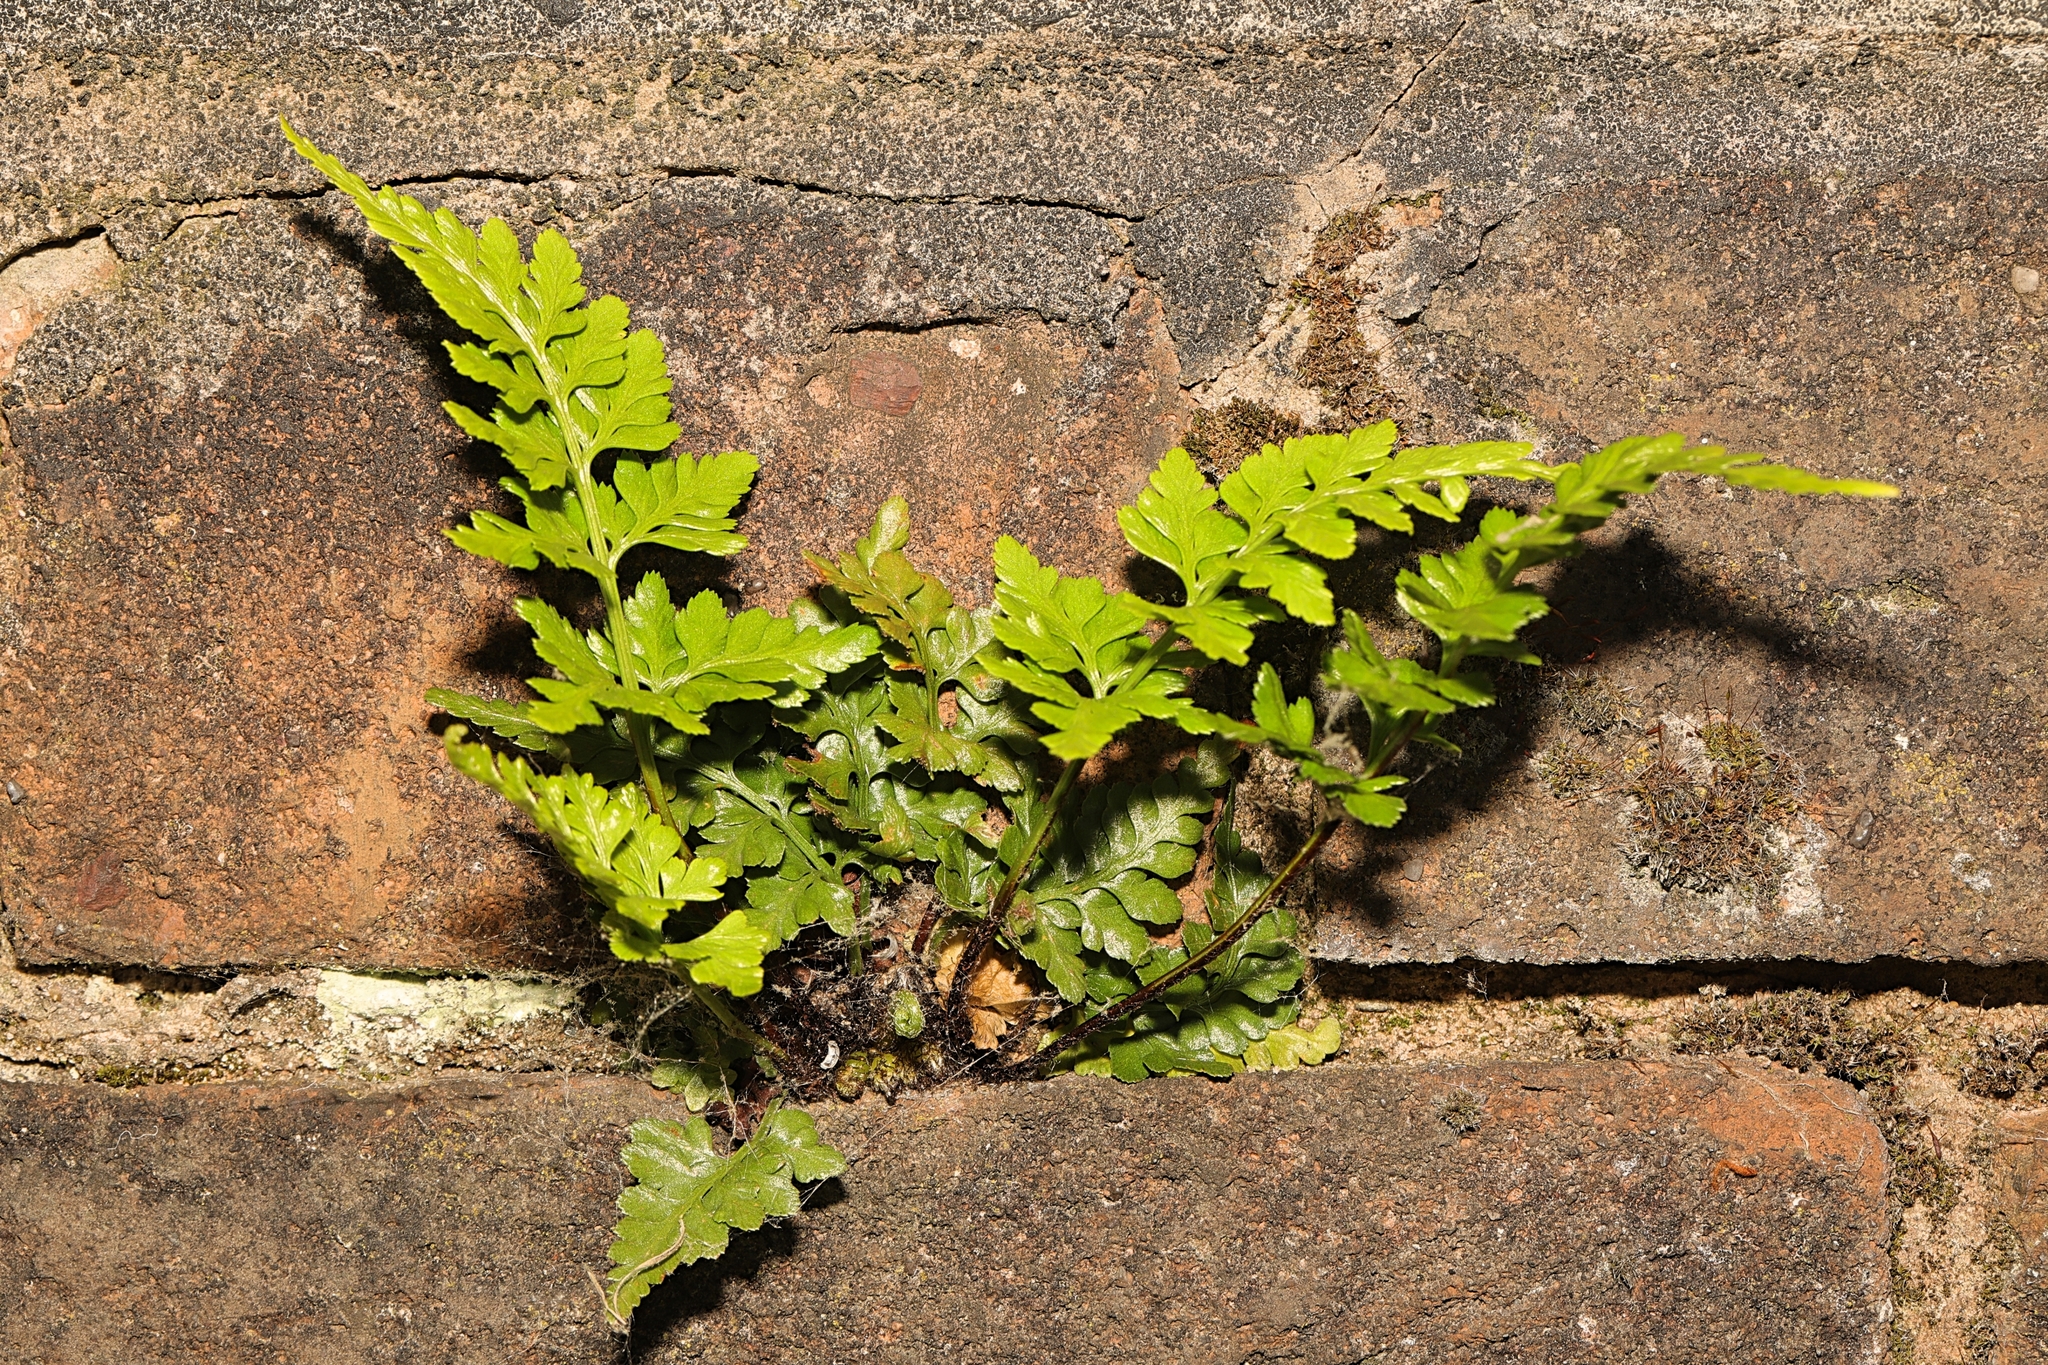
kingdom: Plantae
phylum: Tracheophyta
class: Polypodiopsida
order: Polypodiales
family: Aspleniaceae
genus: Asplenium
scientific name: Asplenium adiantum-nigrum
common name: Black spleenwort
